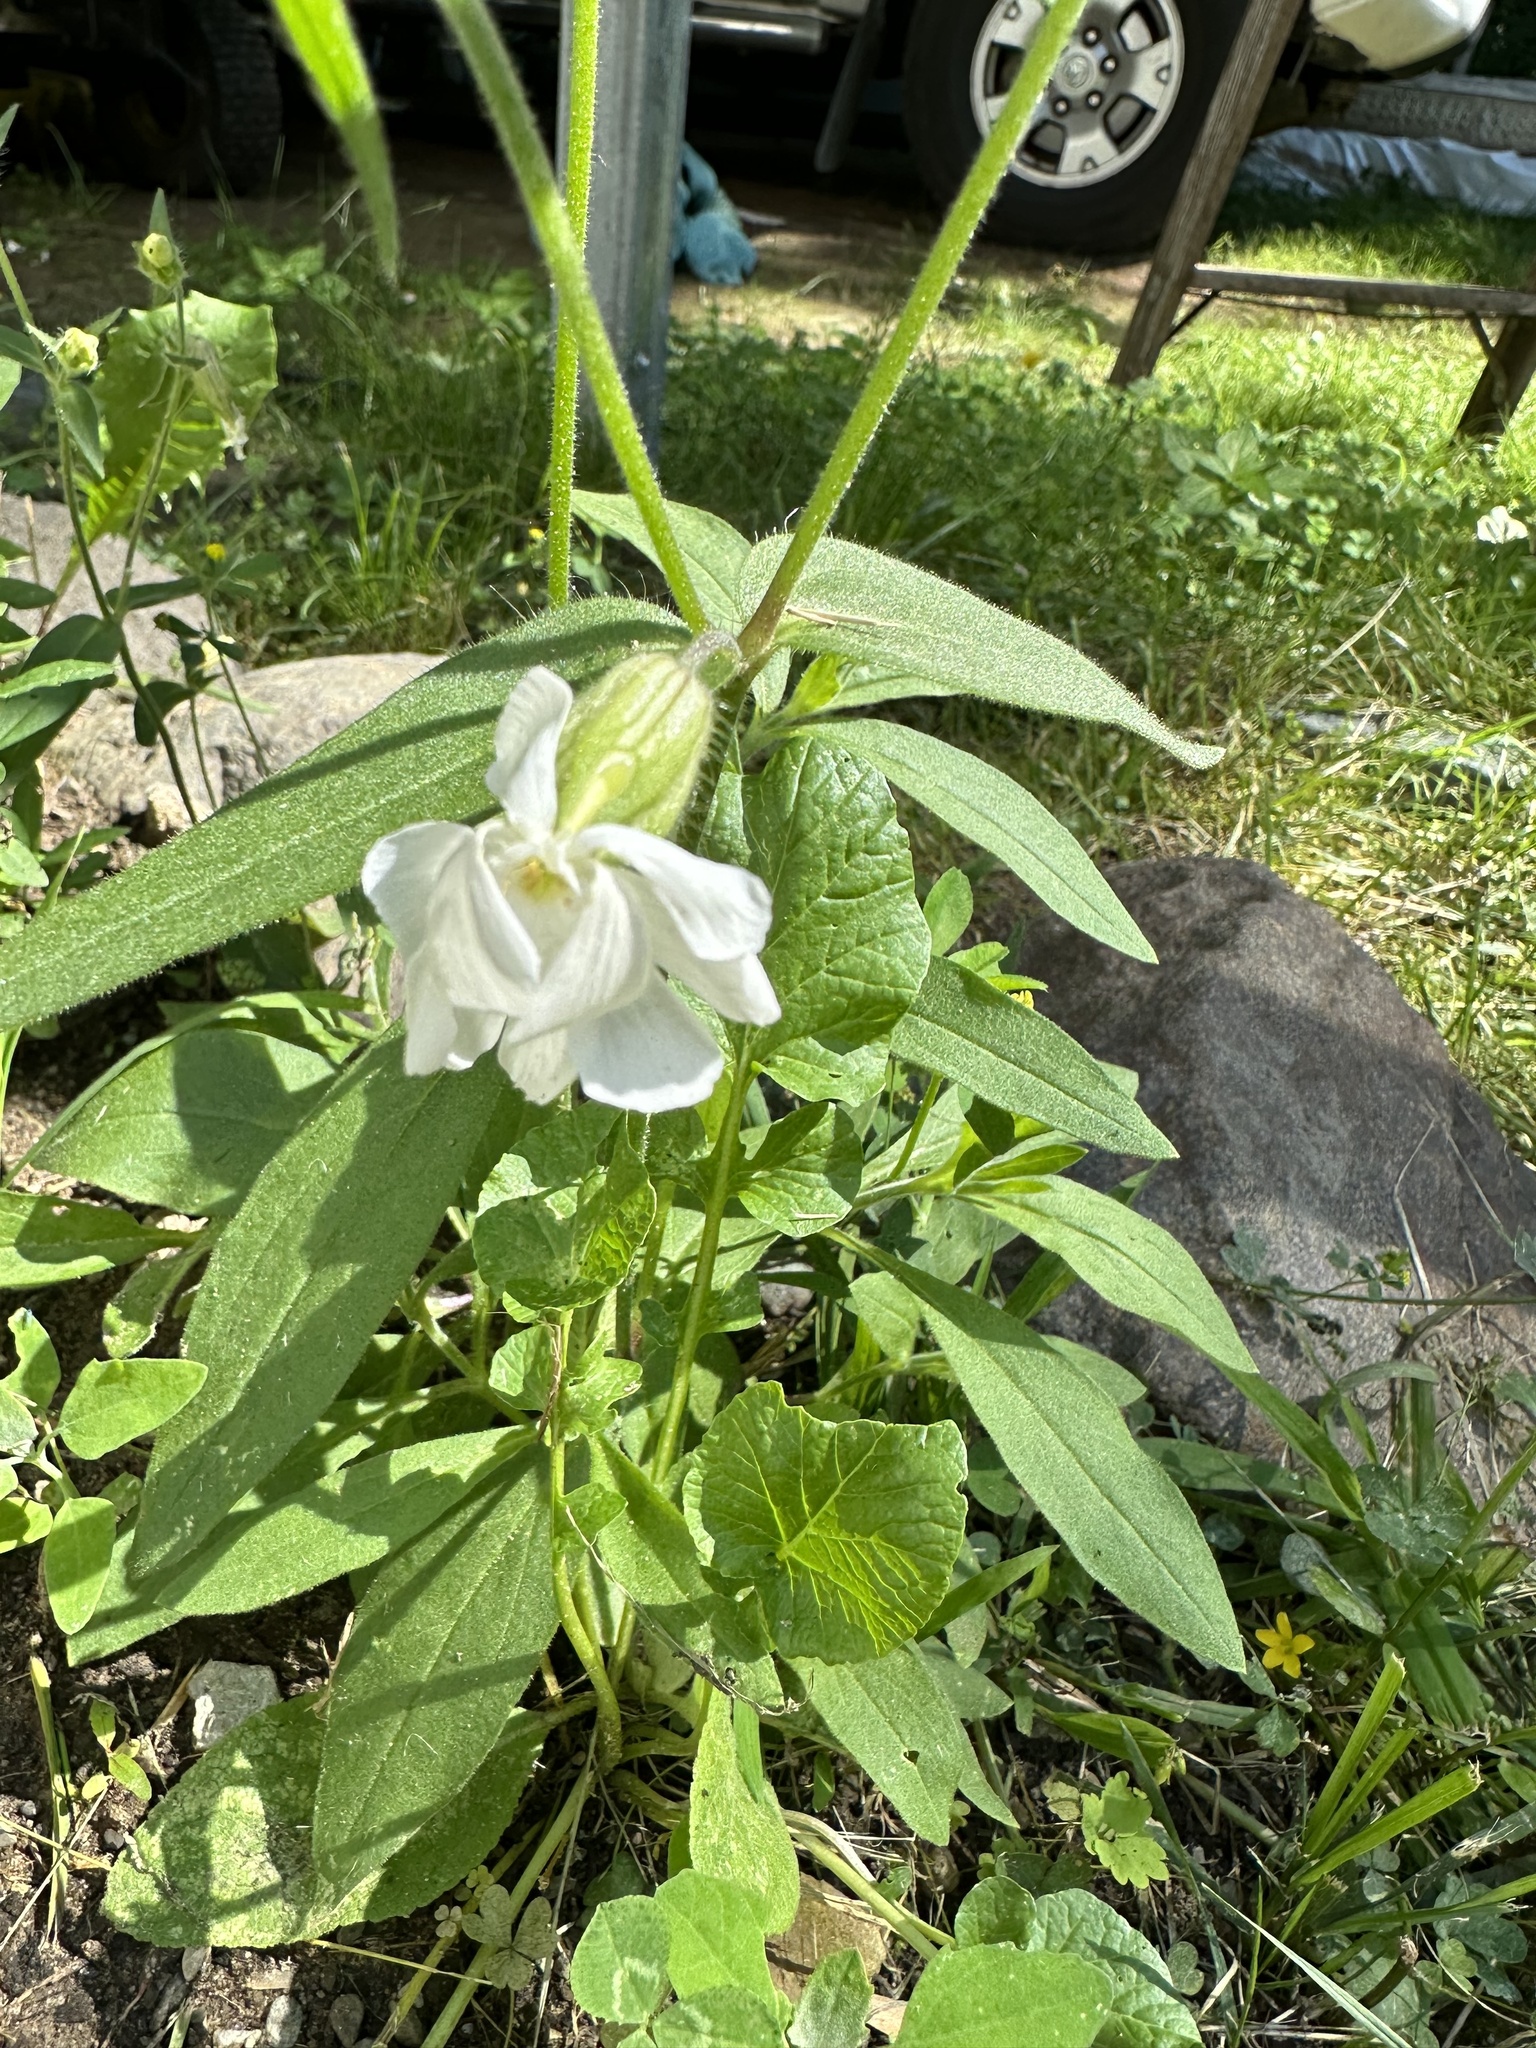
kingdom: Plantae
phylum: Tracheophyta
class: Magnoliopsida
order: Caryophyllales
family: Caryophyllaceae
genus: Silene
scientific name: Silene latifolia
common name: White campion
